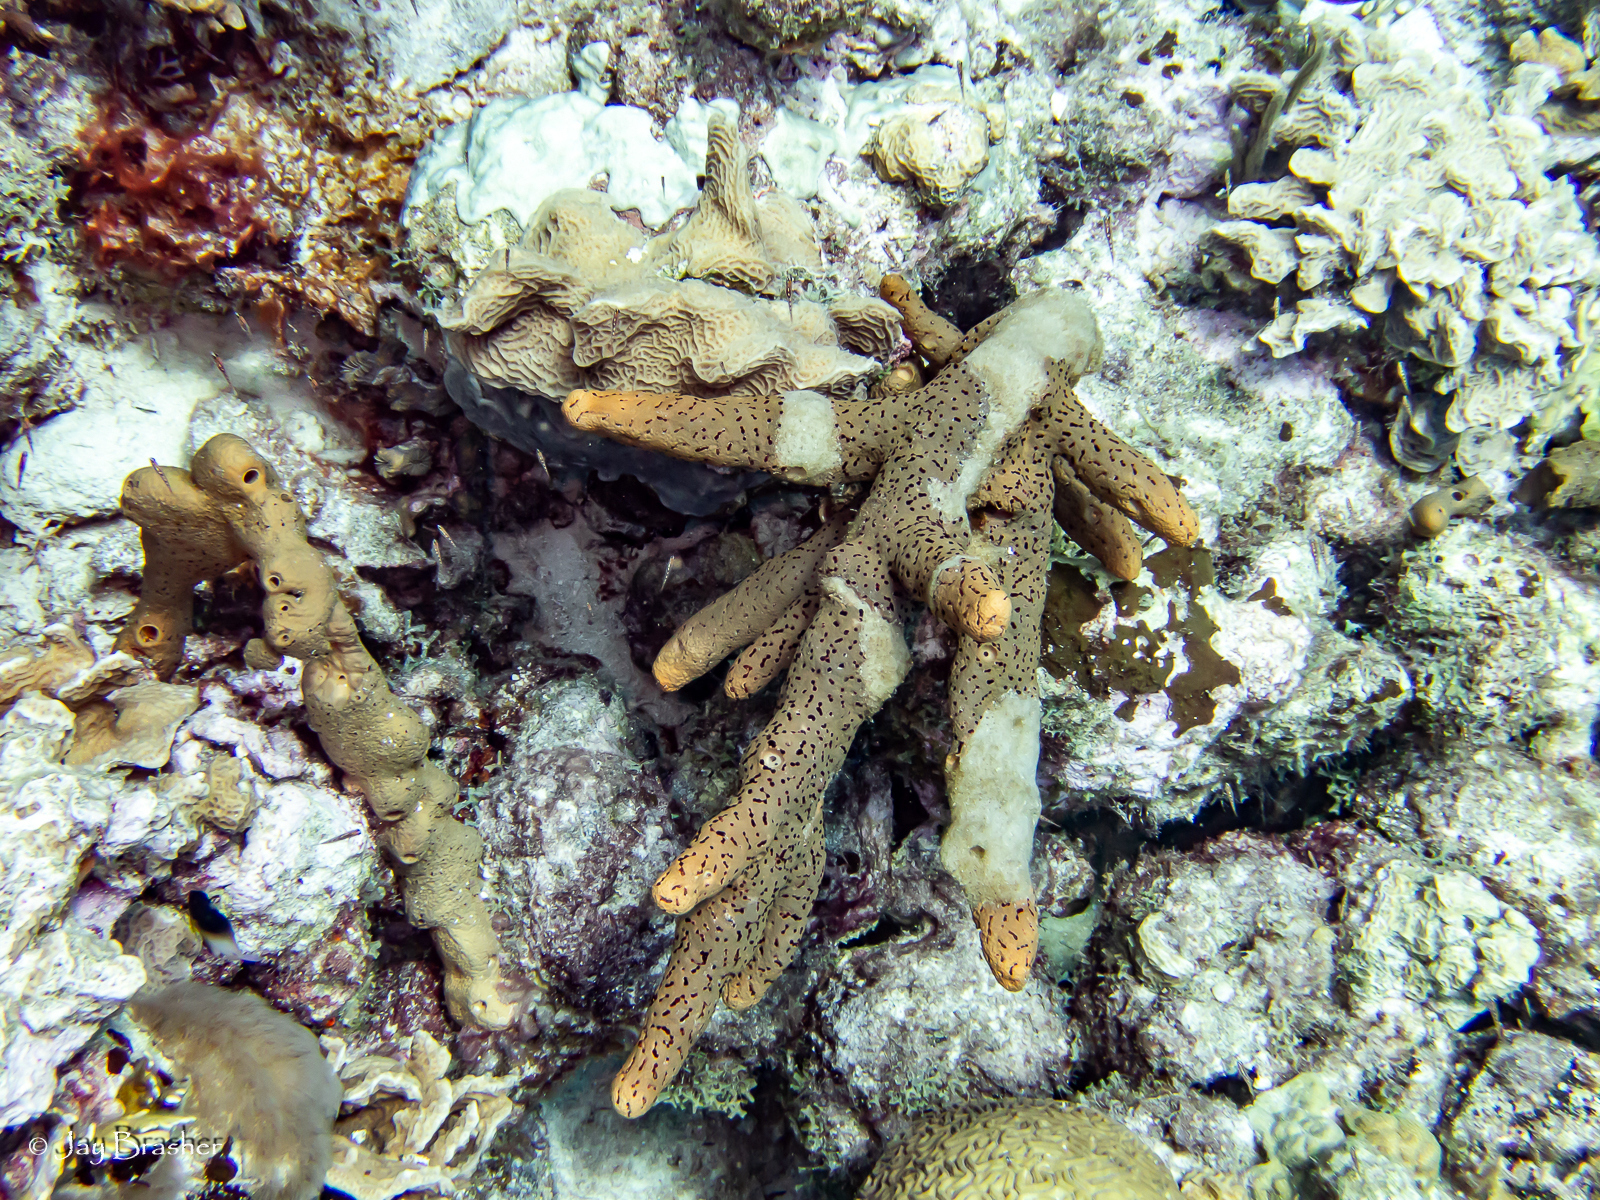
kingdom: Animalia
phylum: Porifera
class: Demospongiae
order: Agelasida
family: Agelasidae
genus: Agelas
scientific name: Agelas conifera
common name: Brown tube sponge
